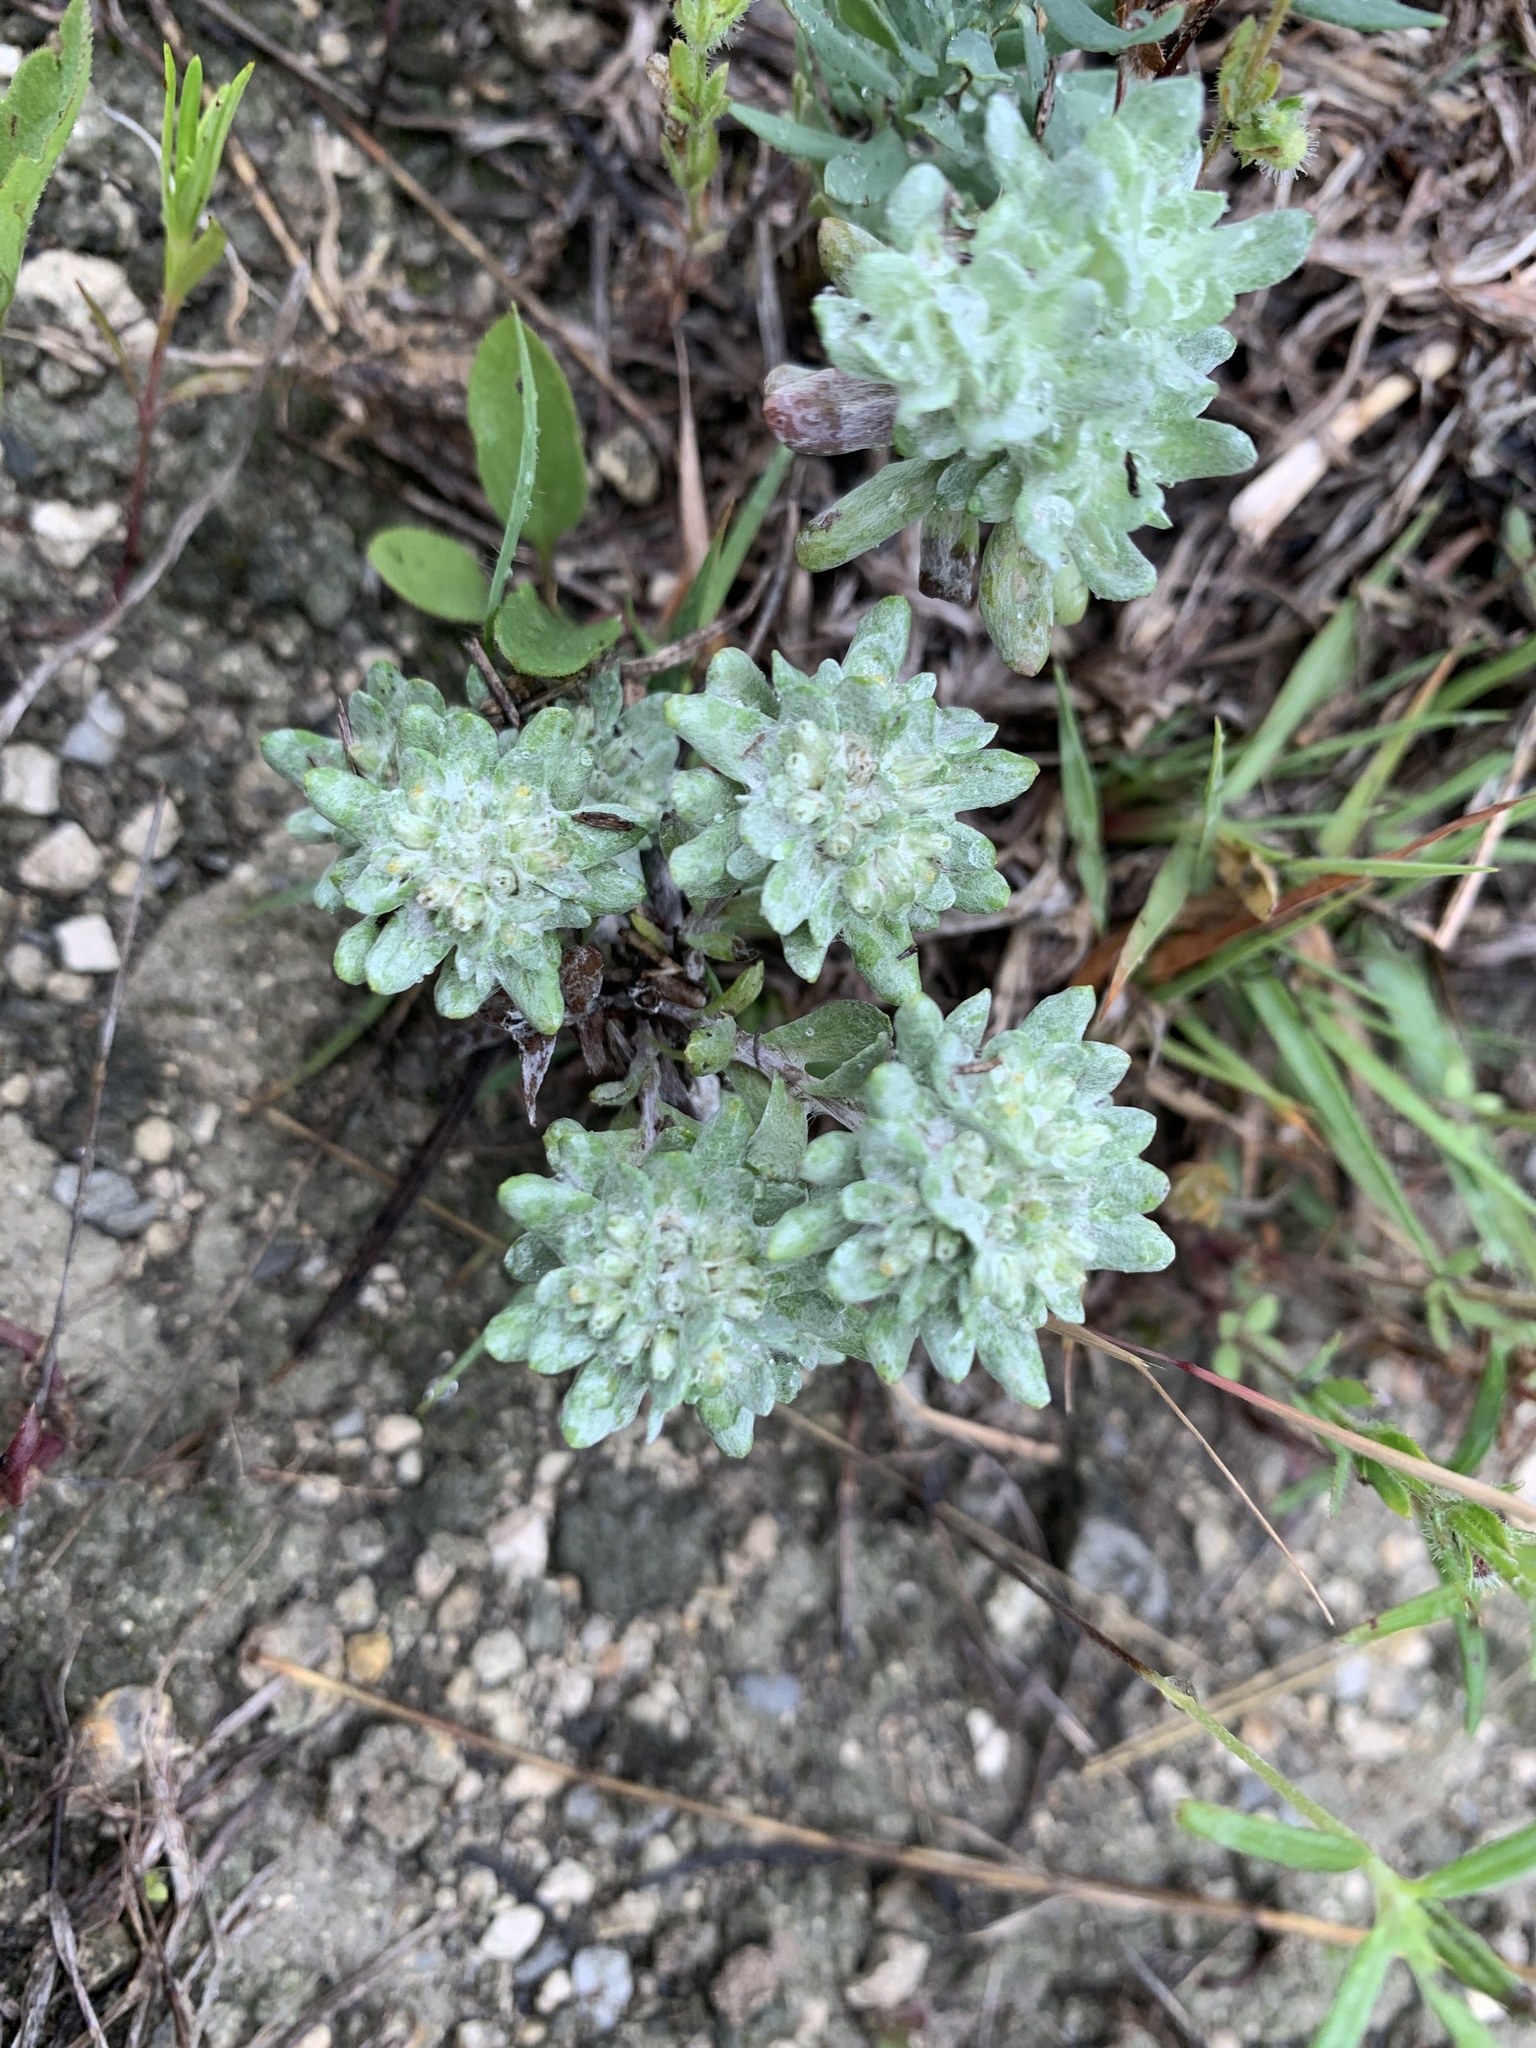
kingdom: Plantae
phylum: Tracheophyta
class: Magnoliopsida
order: Asterales
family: Asteraceae
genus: Diaperia
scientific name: Diaperia prolifera
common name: Big-head rabbit-tobacco
